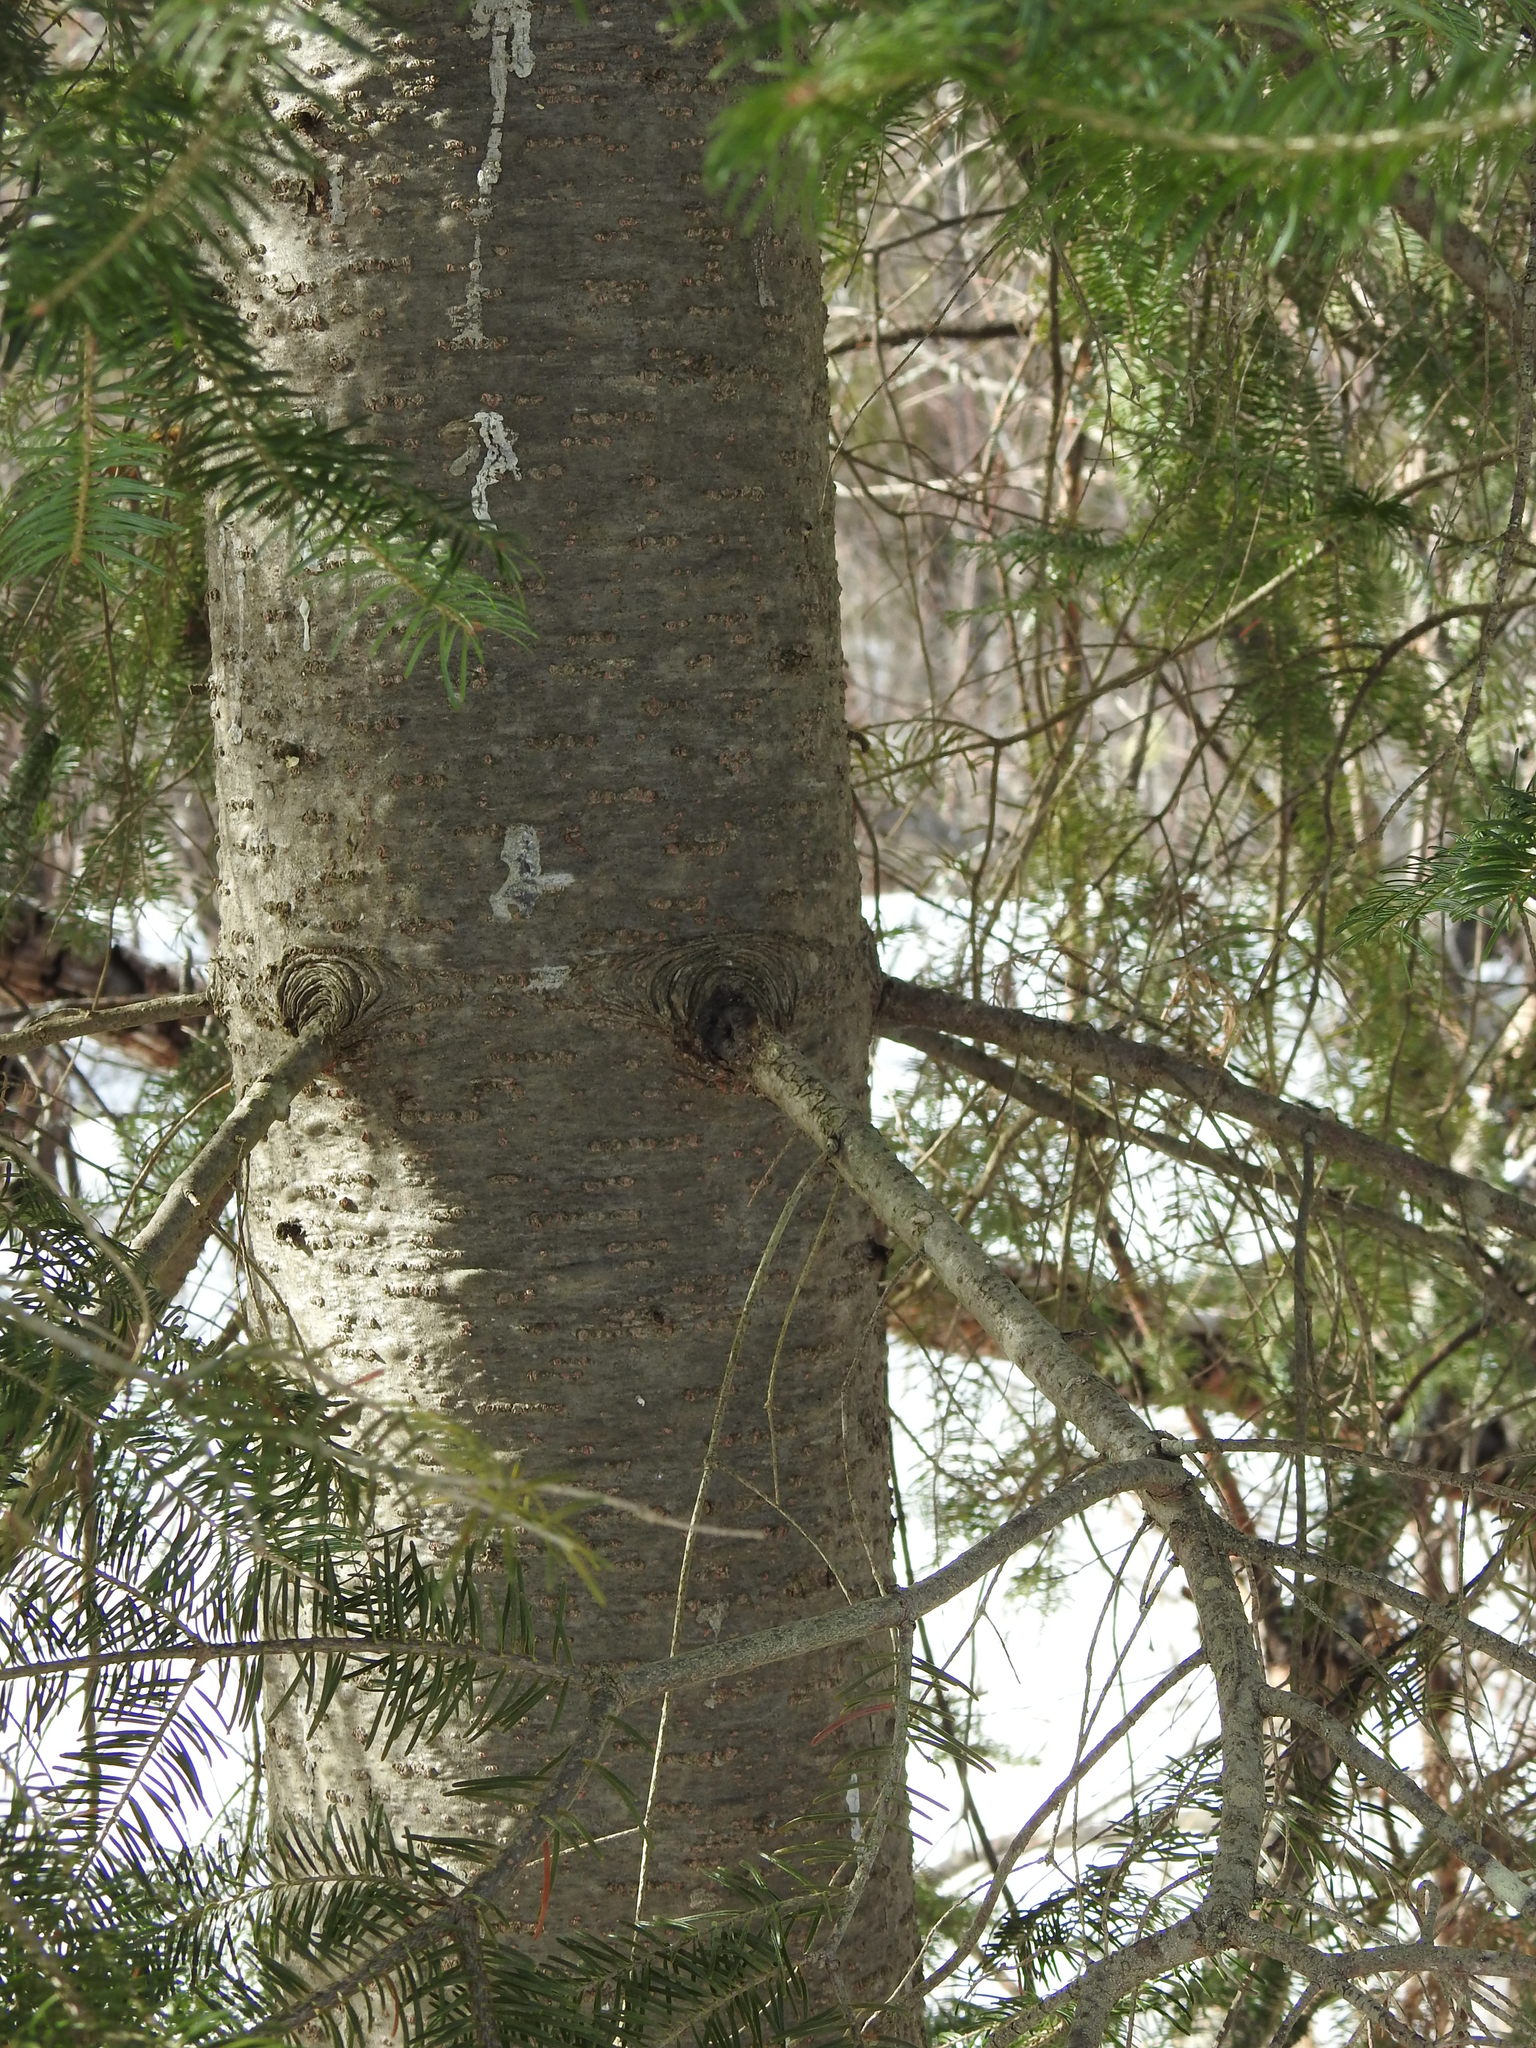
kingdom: Plantae
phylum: Tracheophyta
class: Pinopsida
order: Pinales
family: Pinaceae
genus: Abies
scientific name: Abies balsamea
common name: Balsam fir
